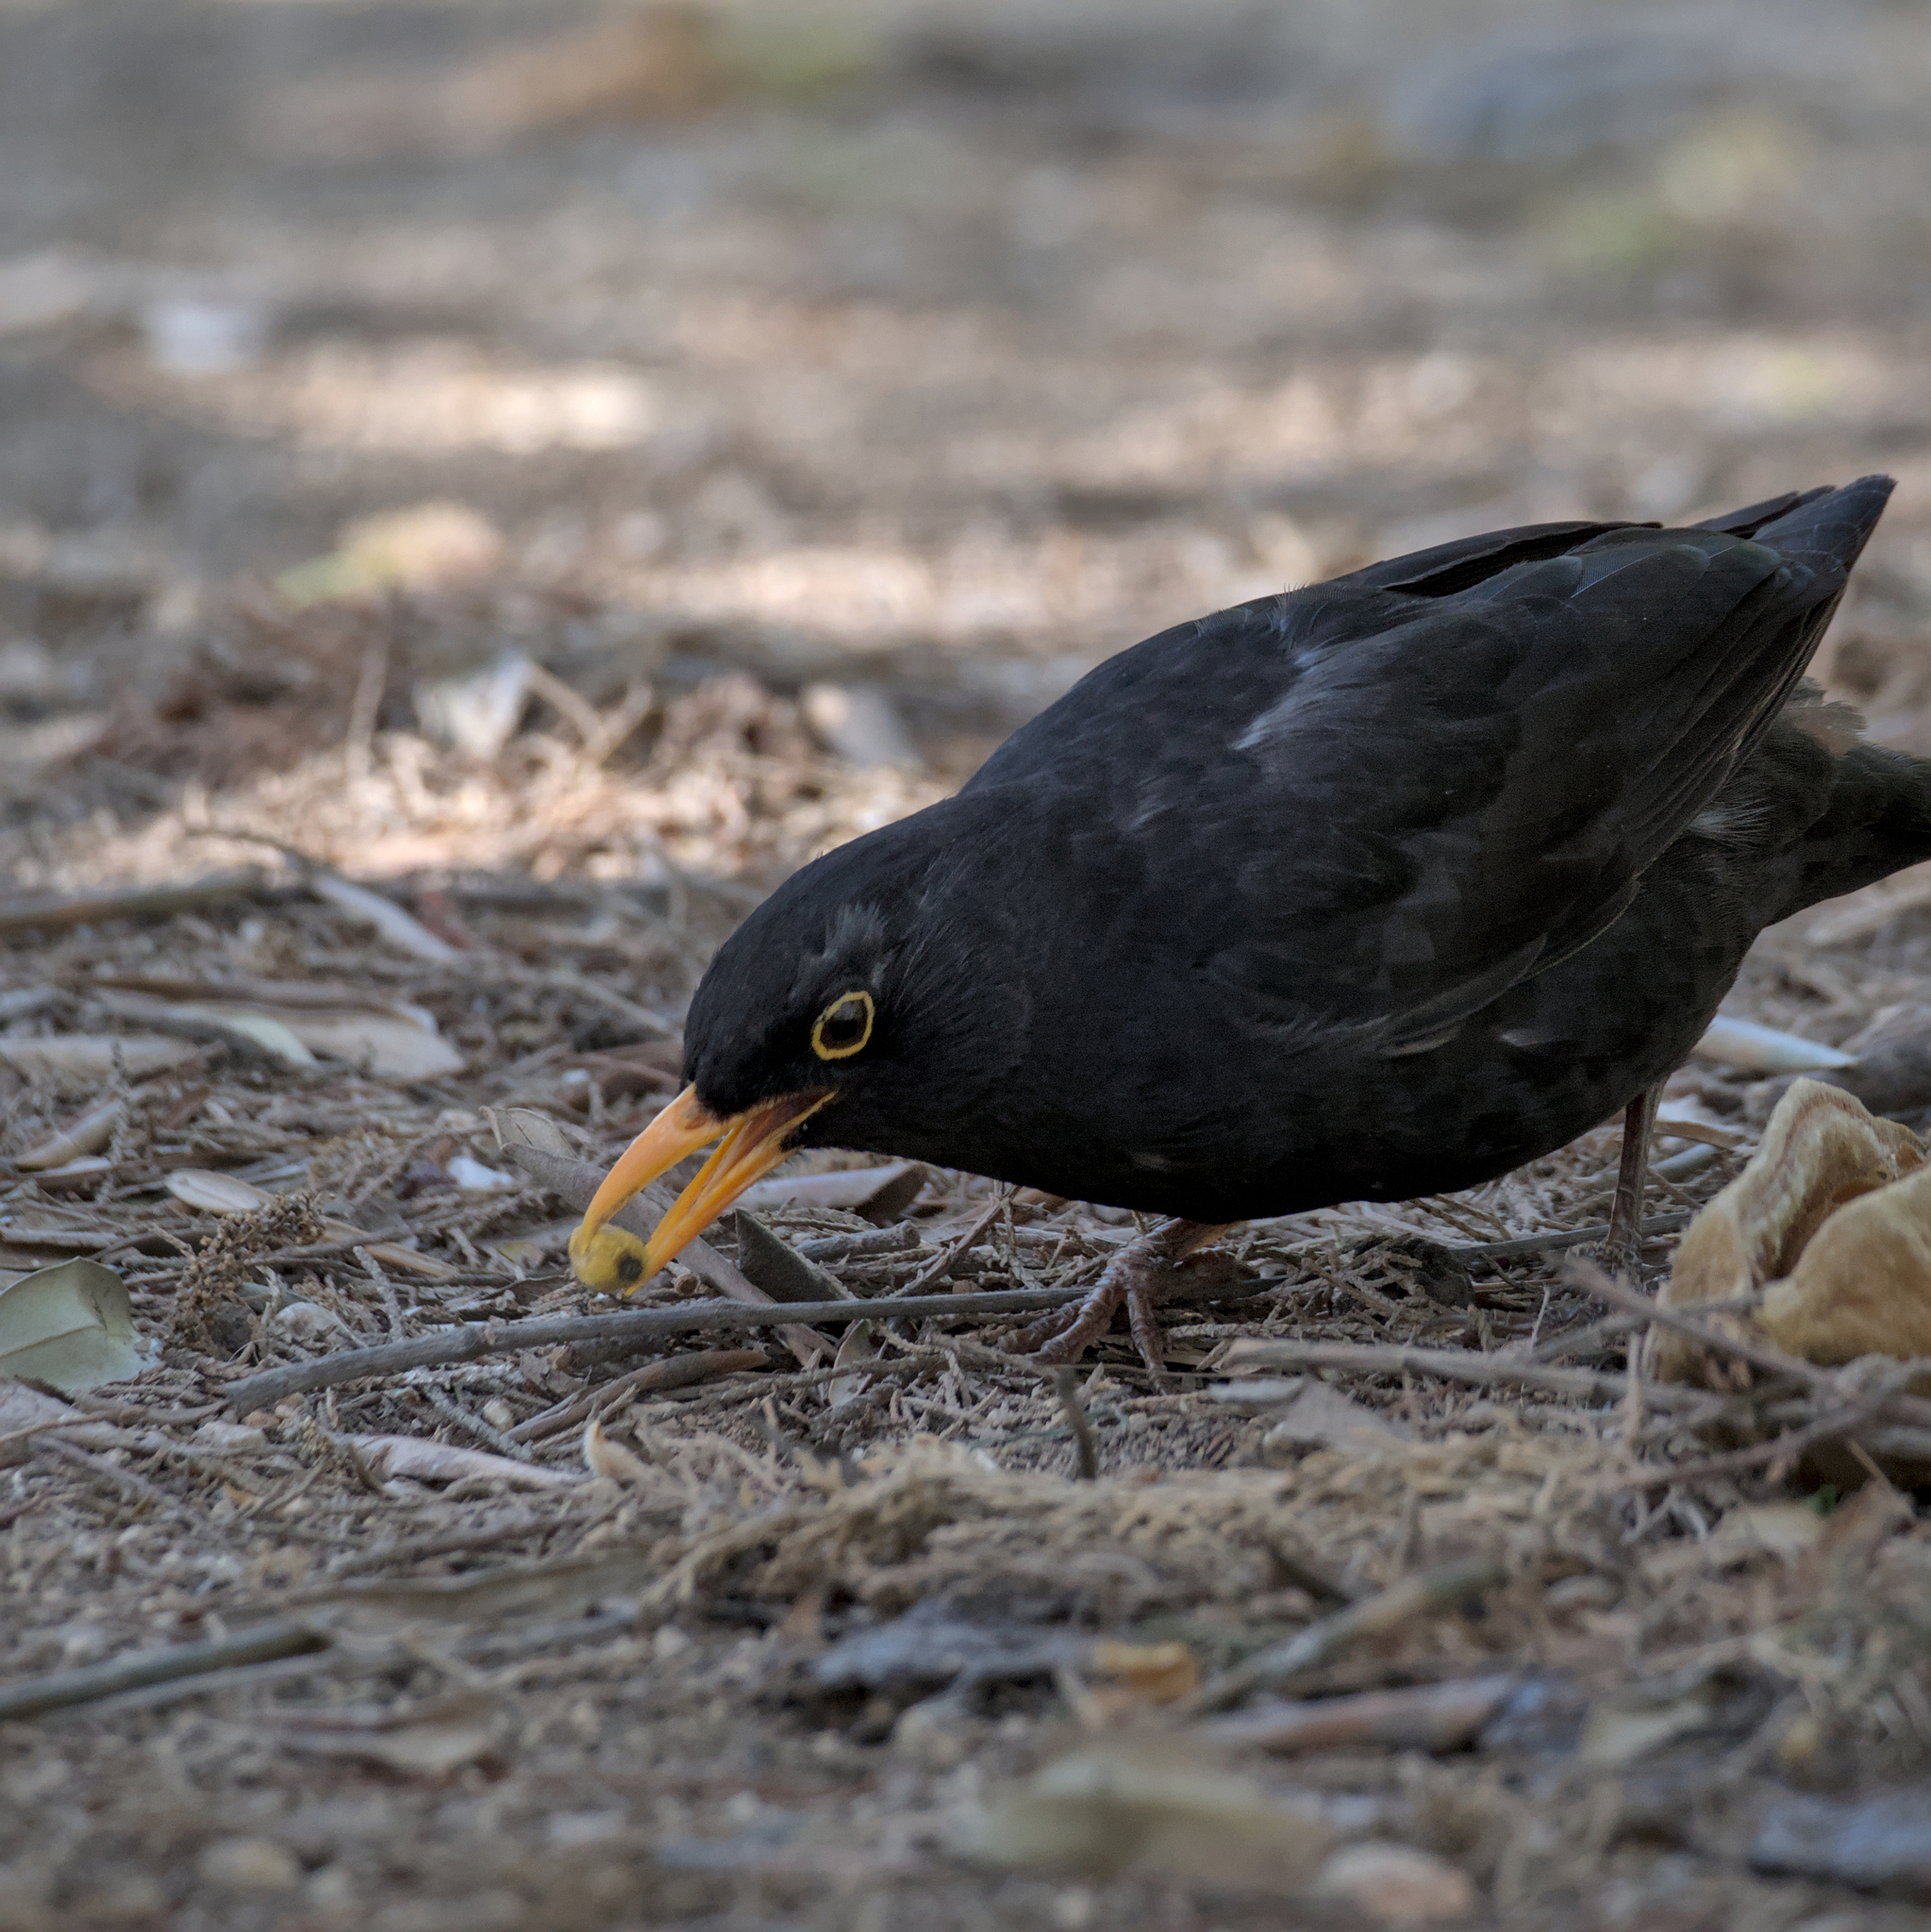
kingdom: Animalia
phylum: Chordata
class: Aves
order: Passeriformes
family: Turdidae
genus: Turdus
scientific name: Turdus merula
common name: Common blackbird
